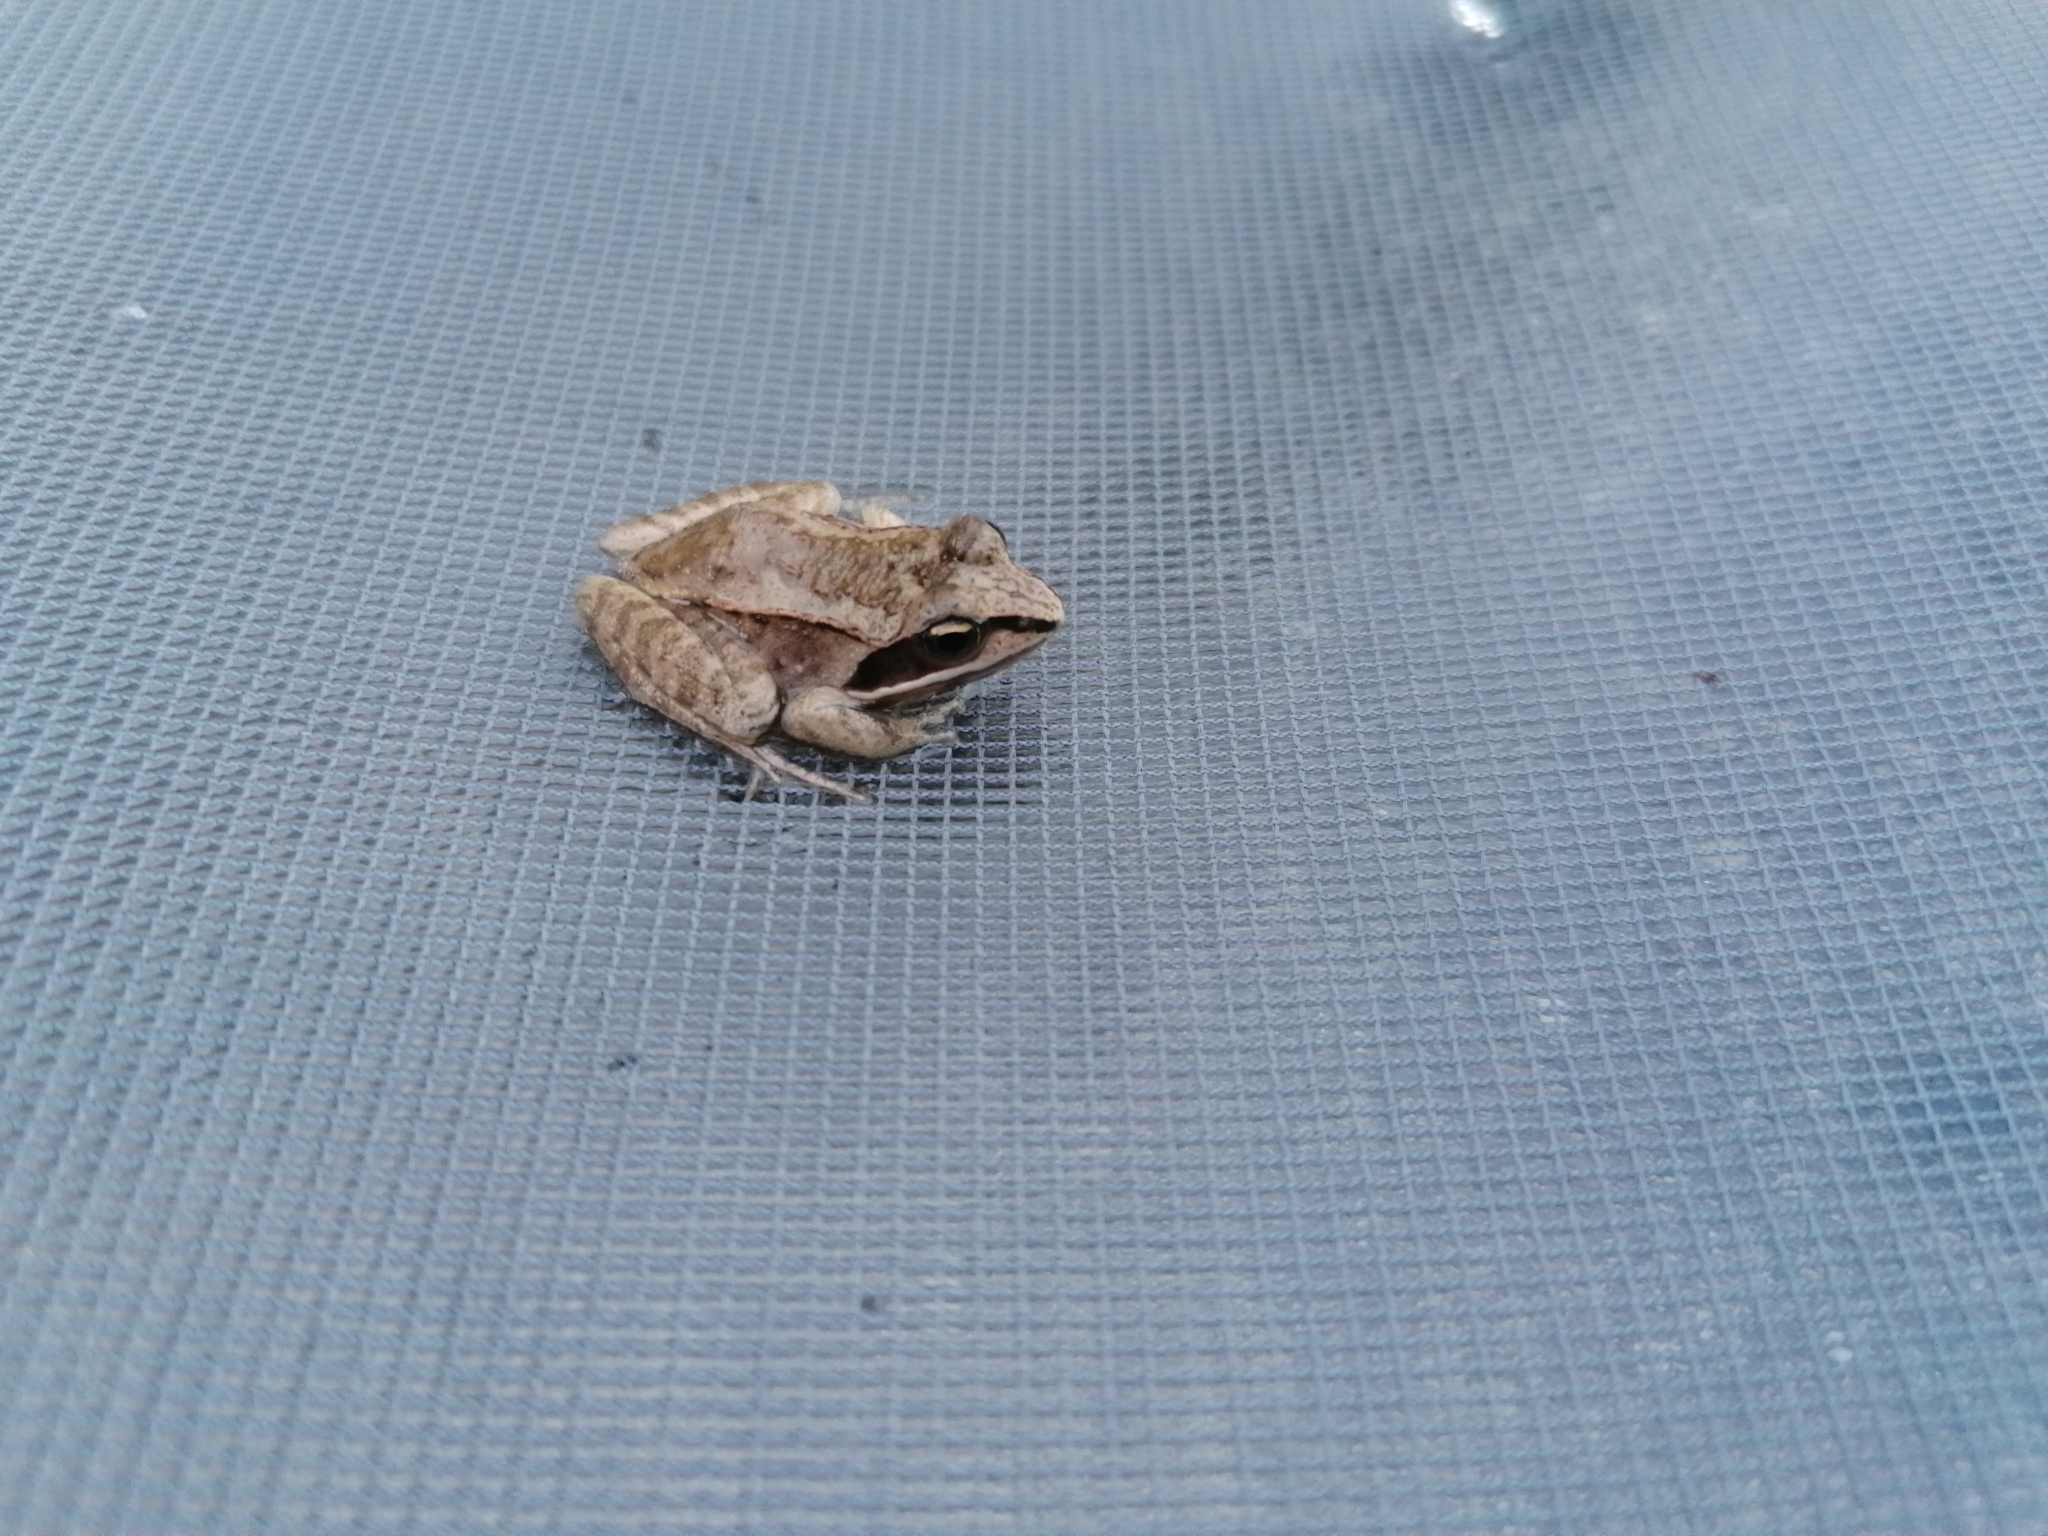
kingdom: Animalia
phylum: Chordata
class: Amphibia
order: Anura
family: Ranidae
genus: Lithobates
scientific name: Lithobates sylvaticus
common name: Wood frog
